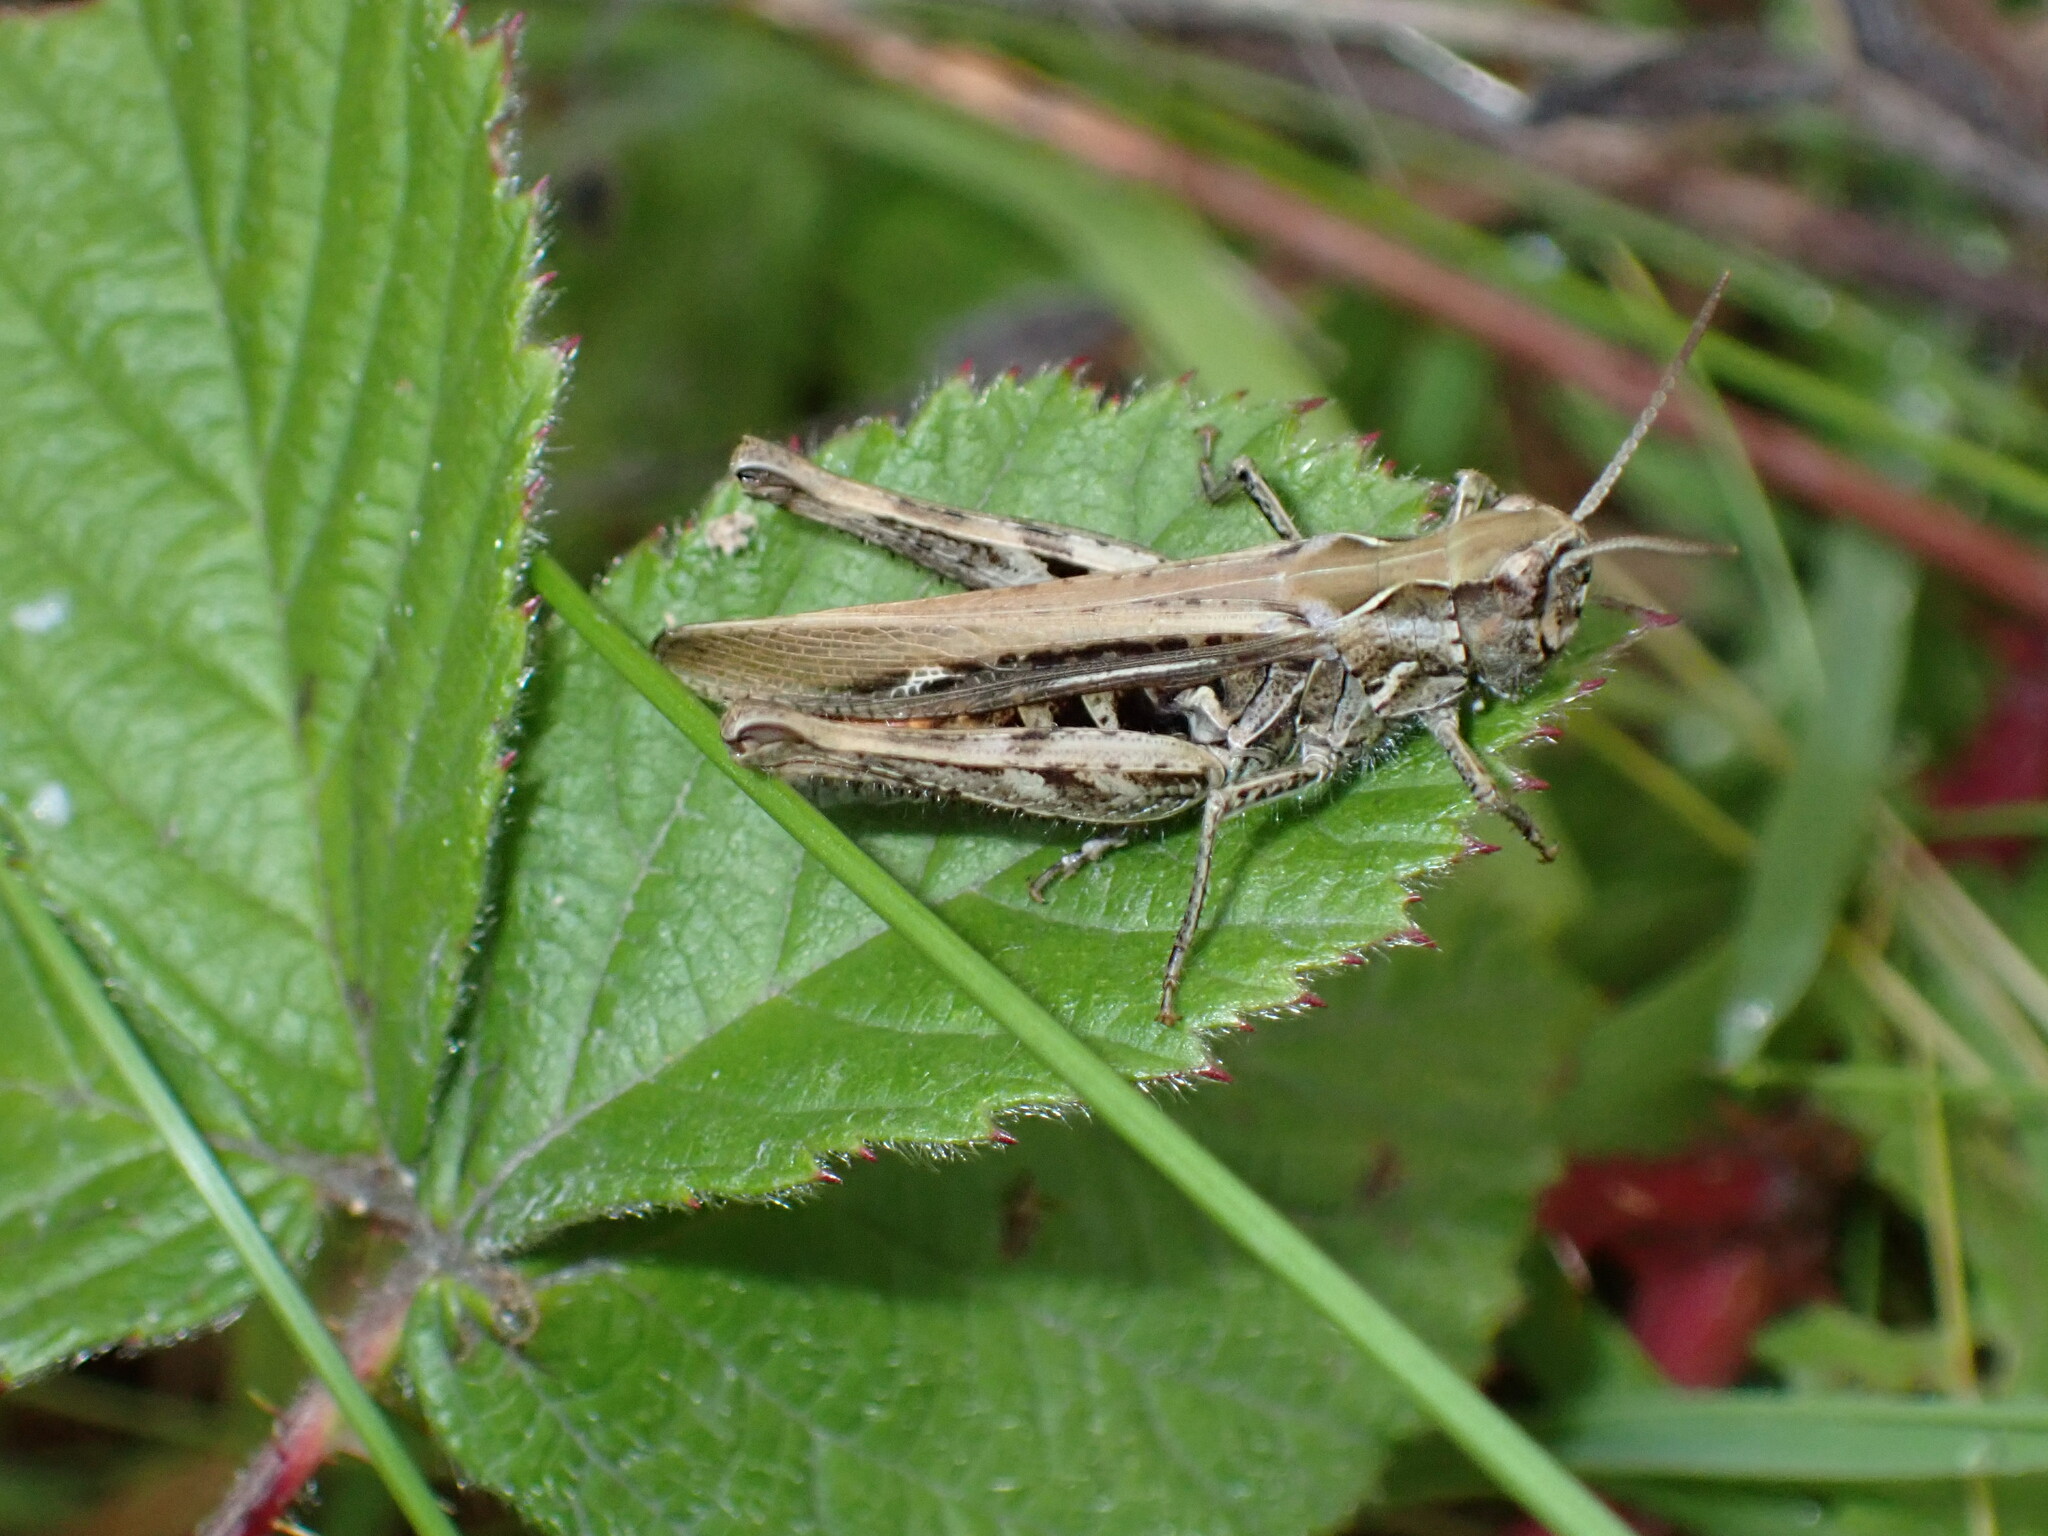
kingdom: Animalia
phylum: Arthropoda
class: Insecta
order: Orthoptera
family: Acrididae
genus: Chorthippus
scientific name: Chorthippus brunneus
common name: Field grasshopper
